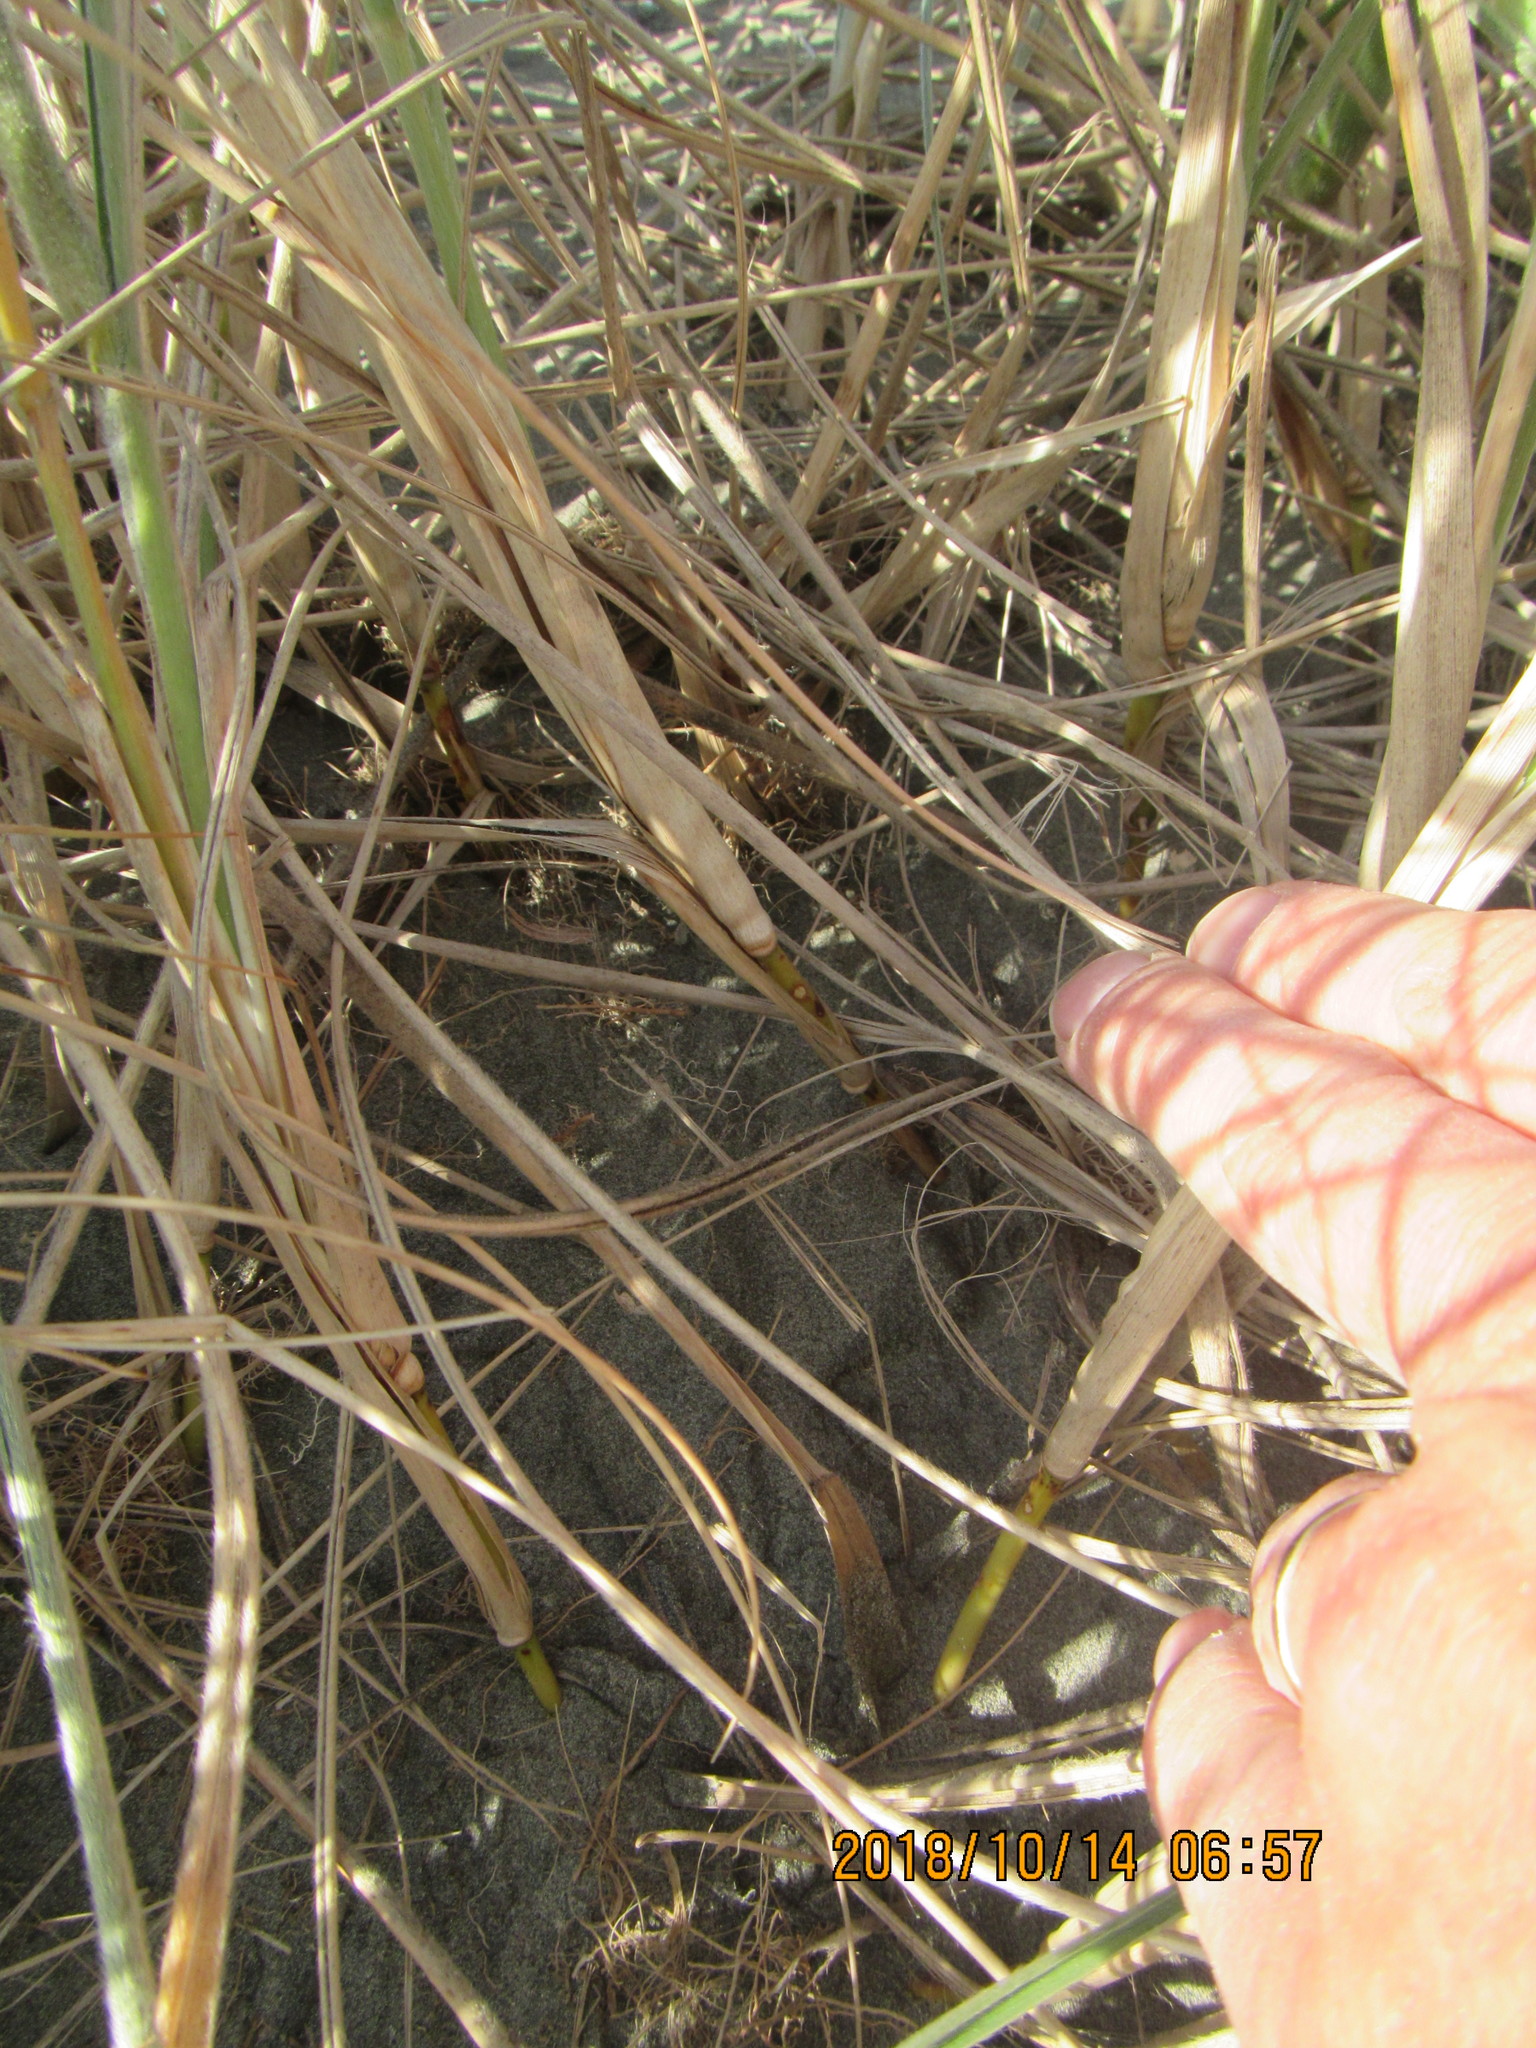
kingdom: Animalia
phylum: Arthropoda
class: Arachnida
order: Araneae
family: Theridiidae
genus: Latrodectus
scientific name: Latrodectus katipo
